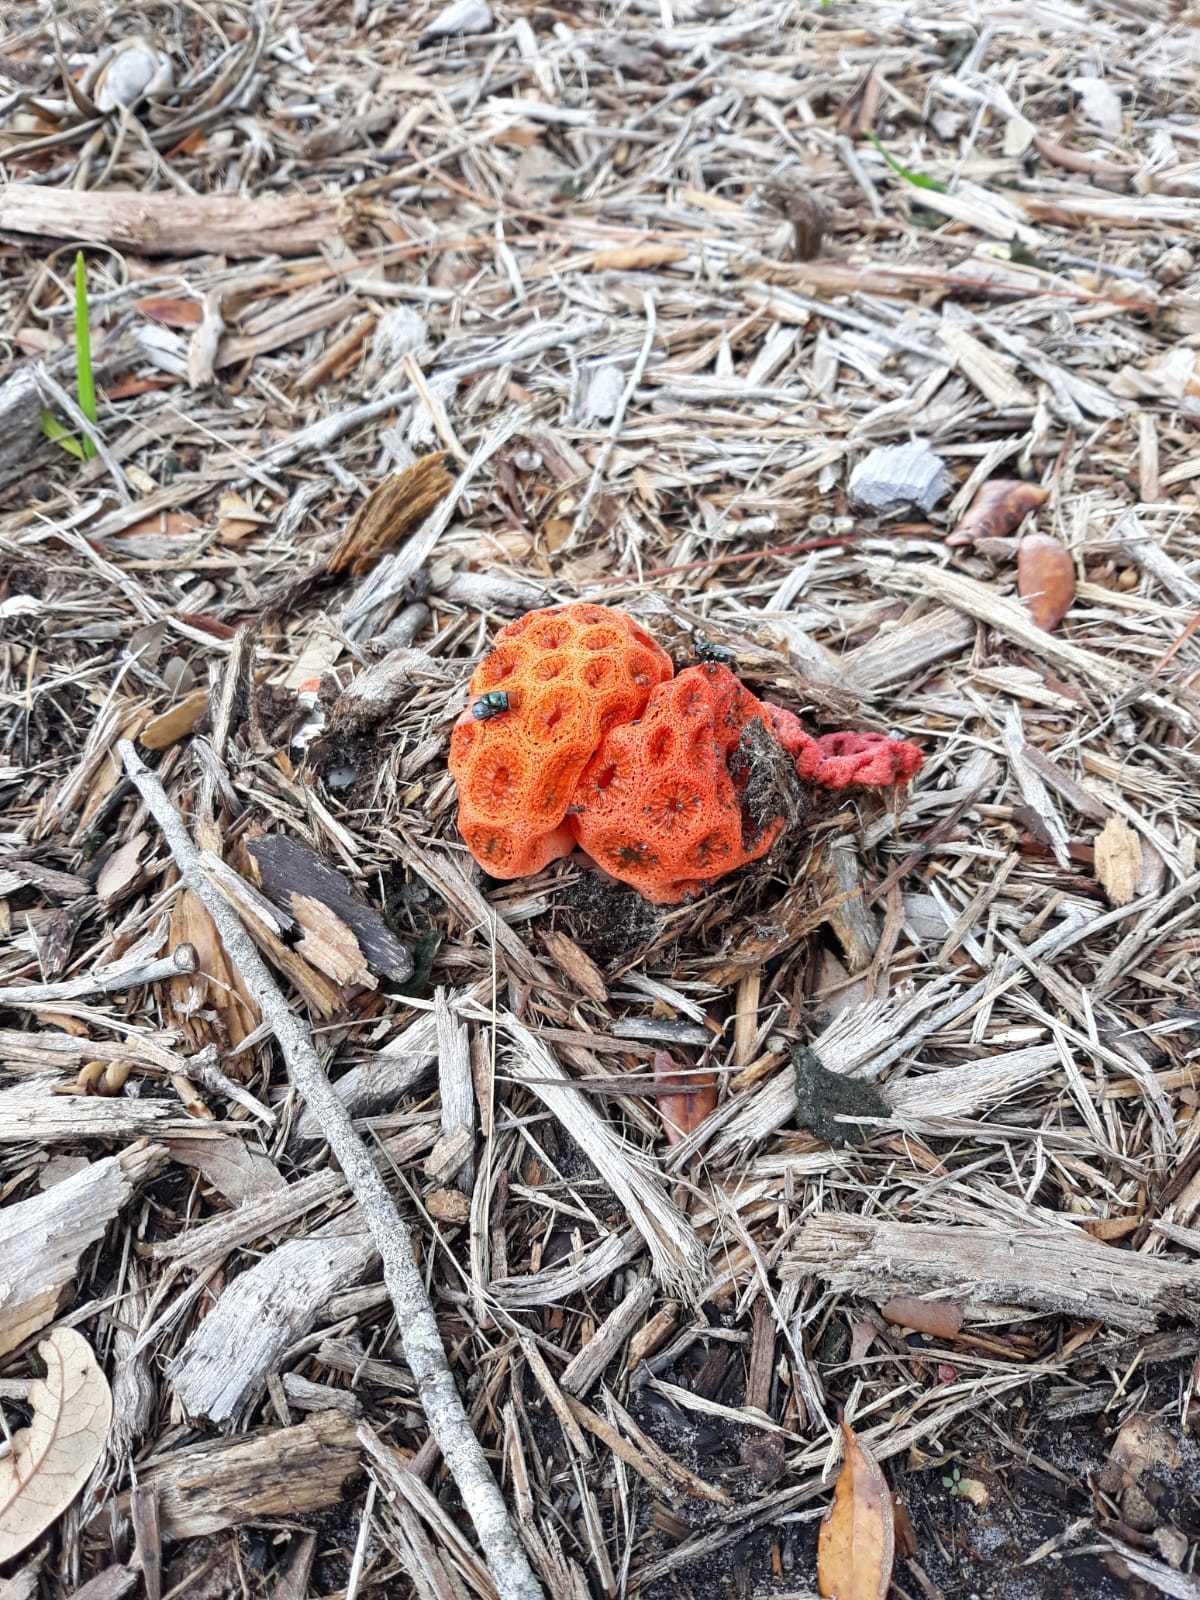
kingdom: Fungi
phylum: Basidiomycota
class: Agaricomycetes
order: Phallales
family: Phallaceae
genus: Clathrus
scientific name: Clathrus crispatus
